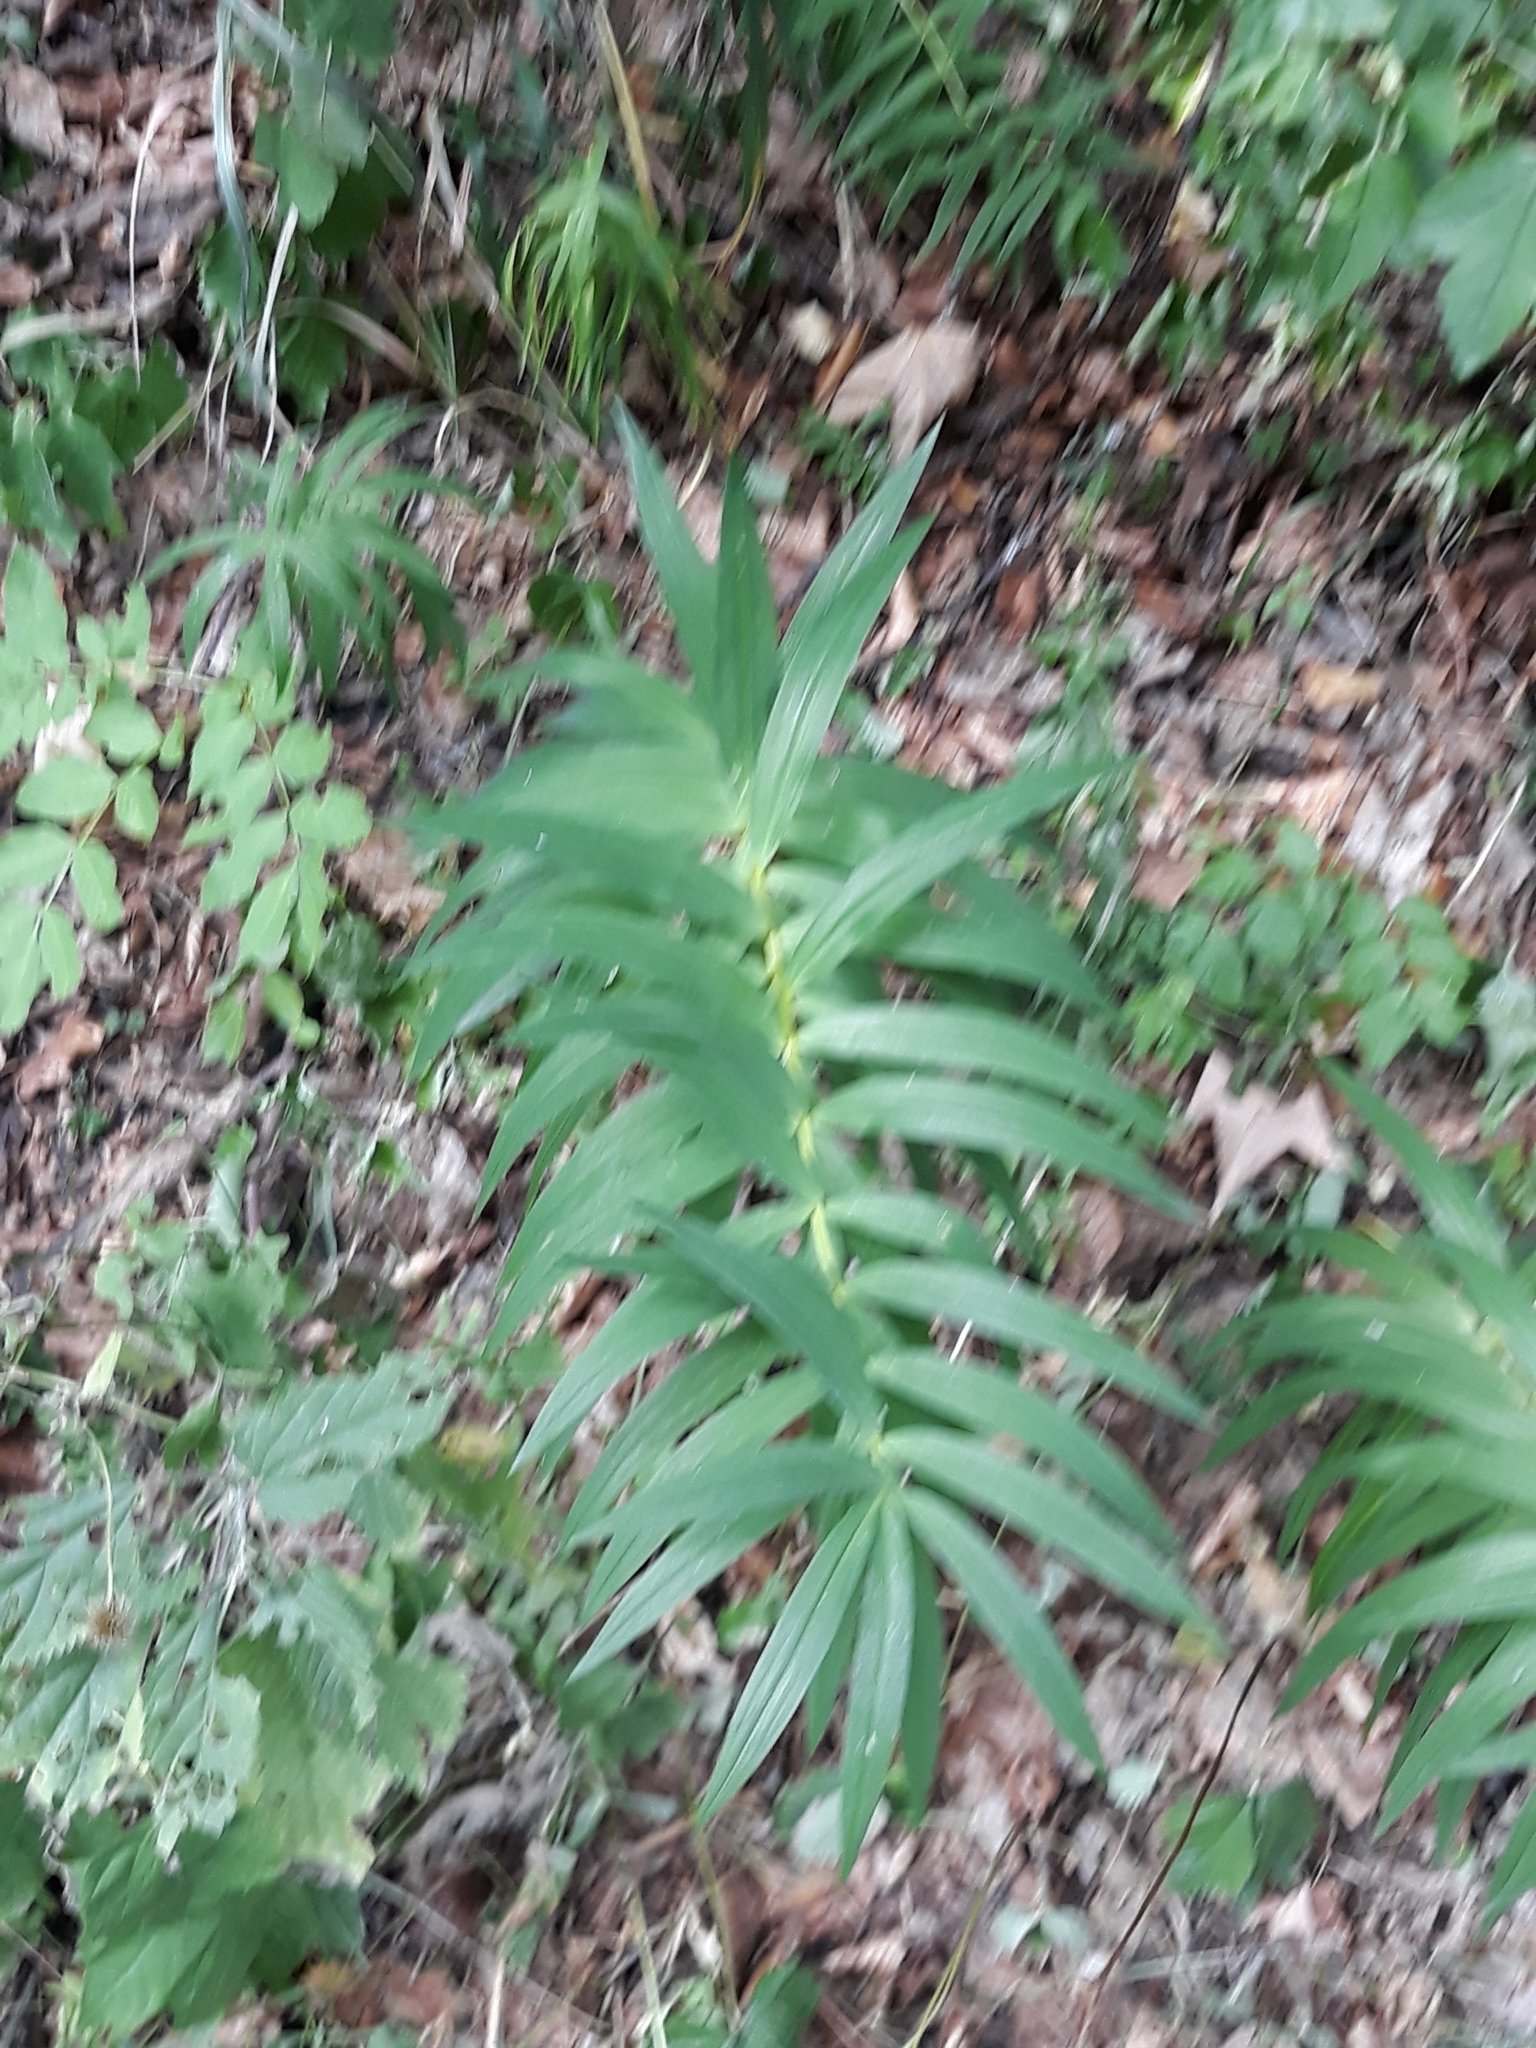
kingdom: Plantae
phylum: Tracheophyta
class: Liliopsida
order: Asparagales
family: Asparagaceae
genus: Polygonatum
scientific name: Polygonatum verticillatum
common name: Whorled solomon's-seal
